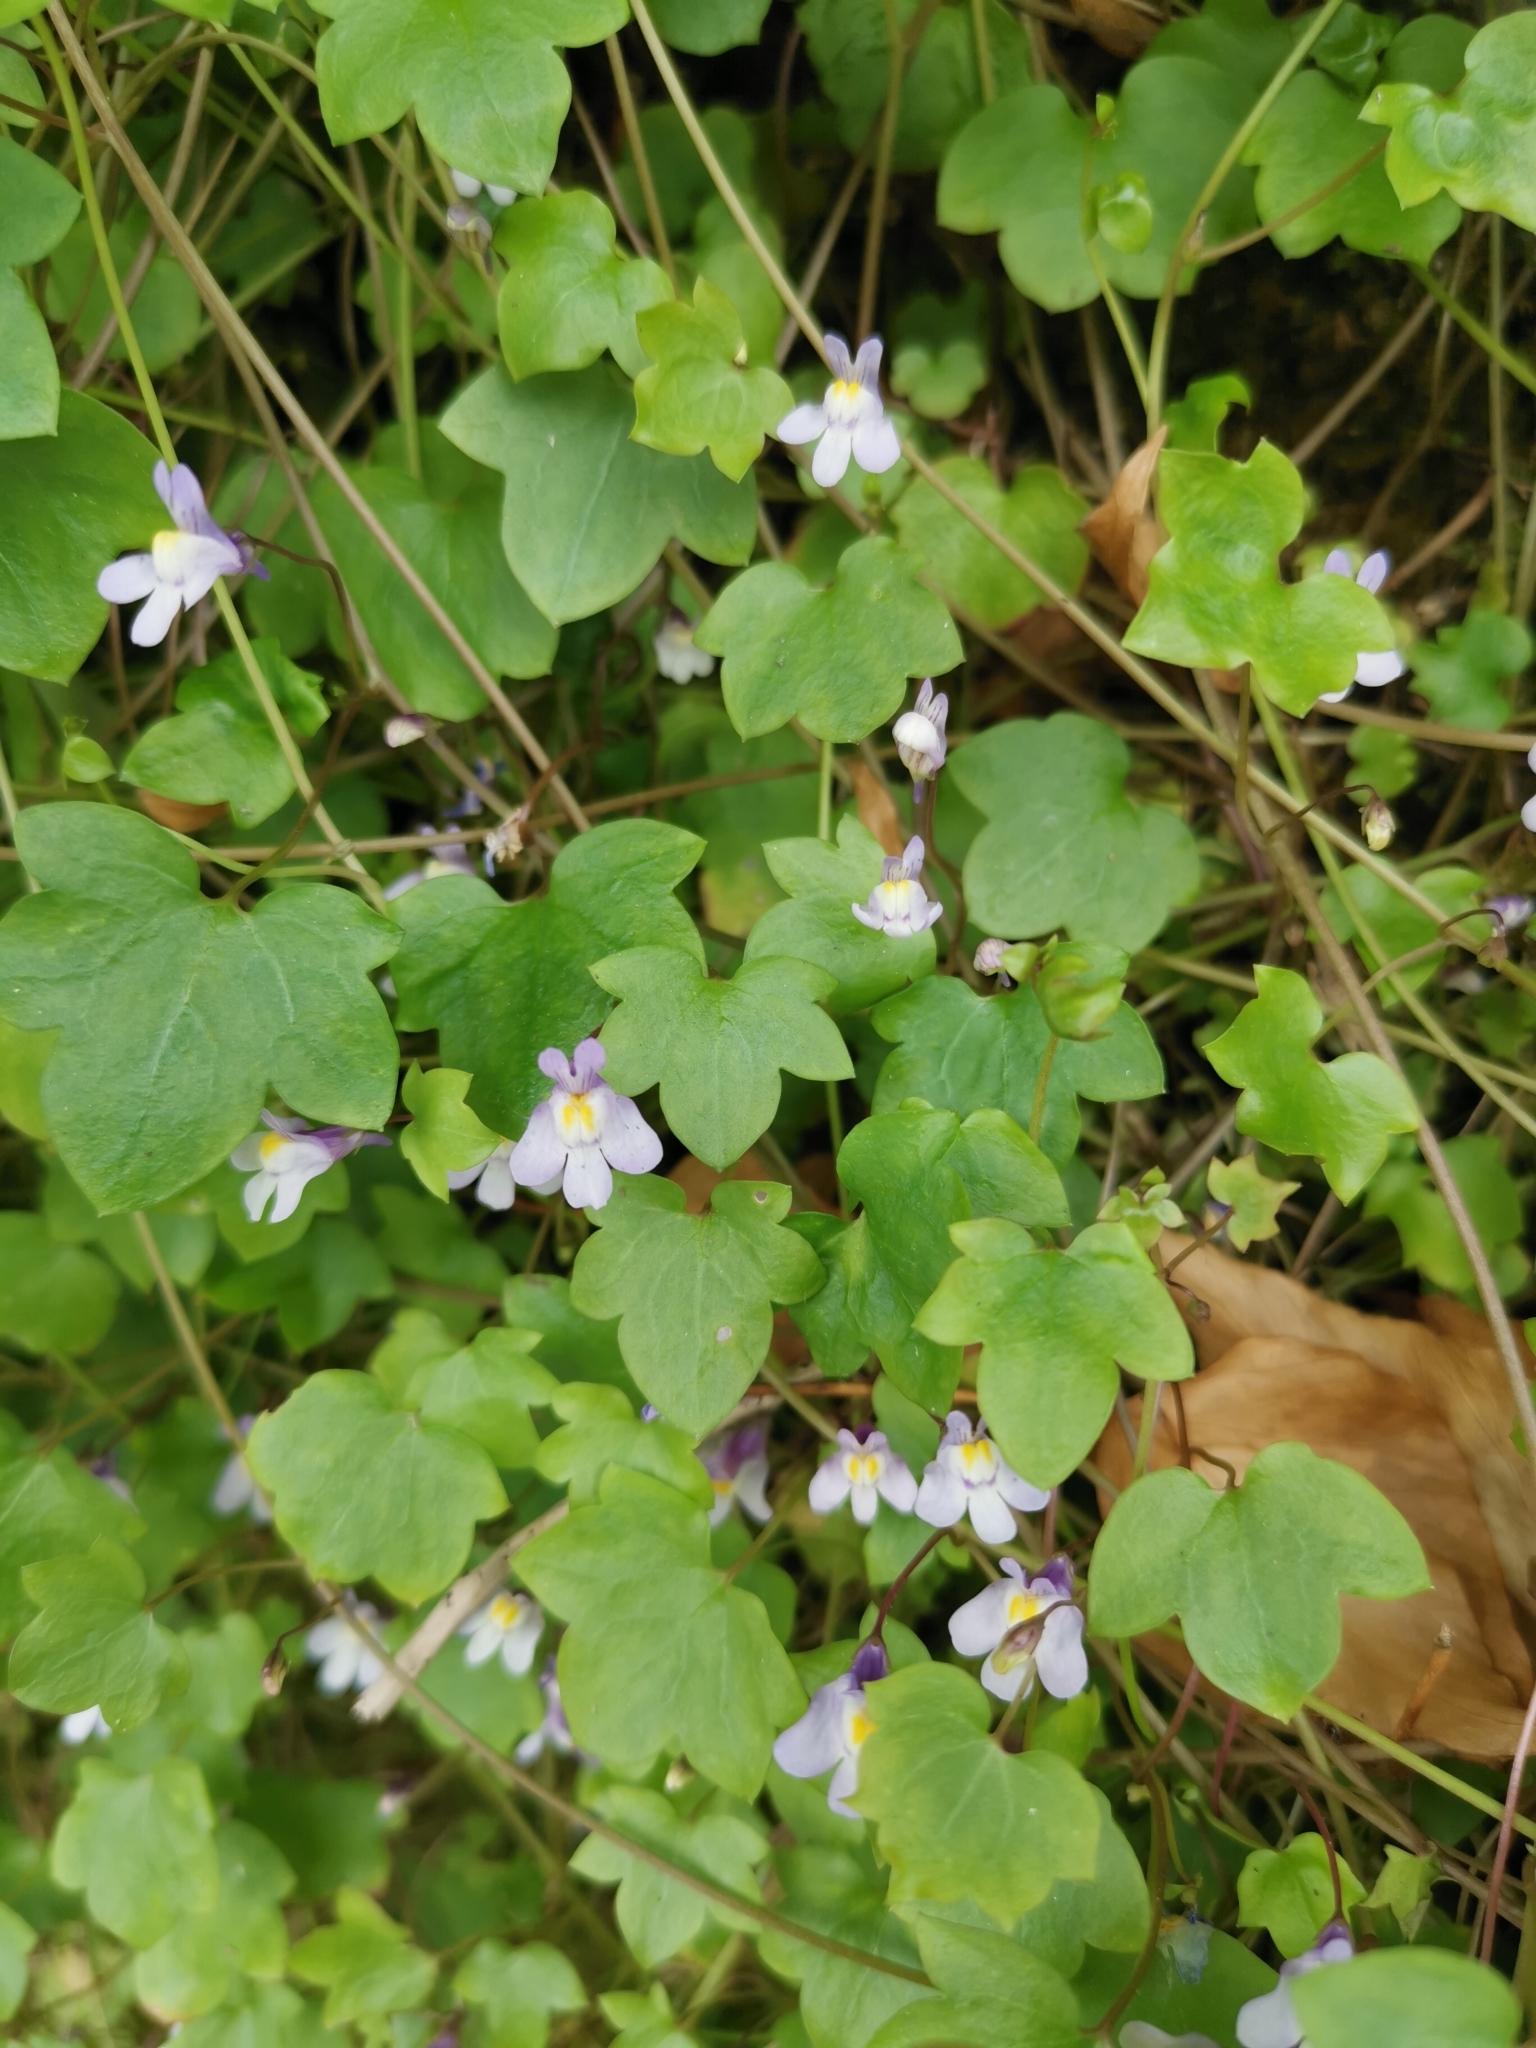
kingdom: Plantae
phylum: Tracheophyta
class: Magnoliopsida
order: Lamiales
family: Plantaginaceae
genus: Cymbalaria
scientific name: Cymbalaria muralis
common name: Ivy-leaved toadflax
